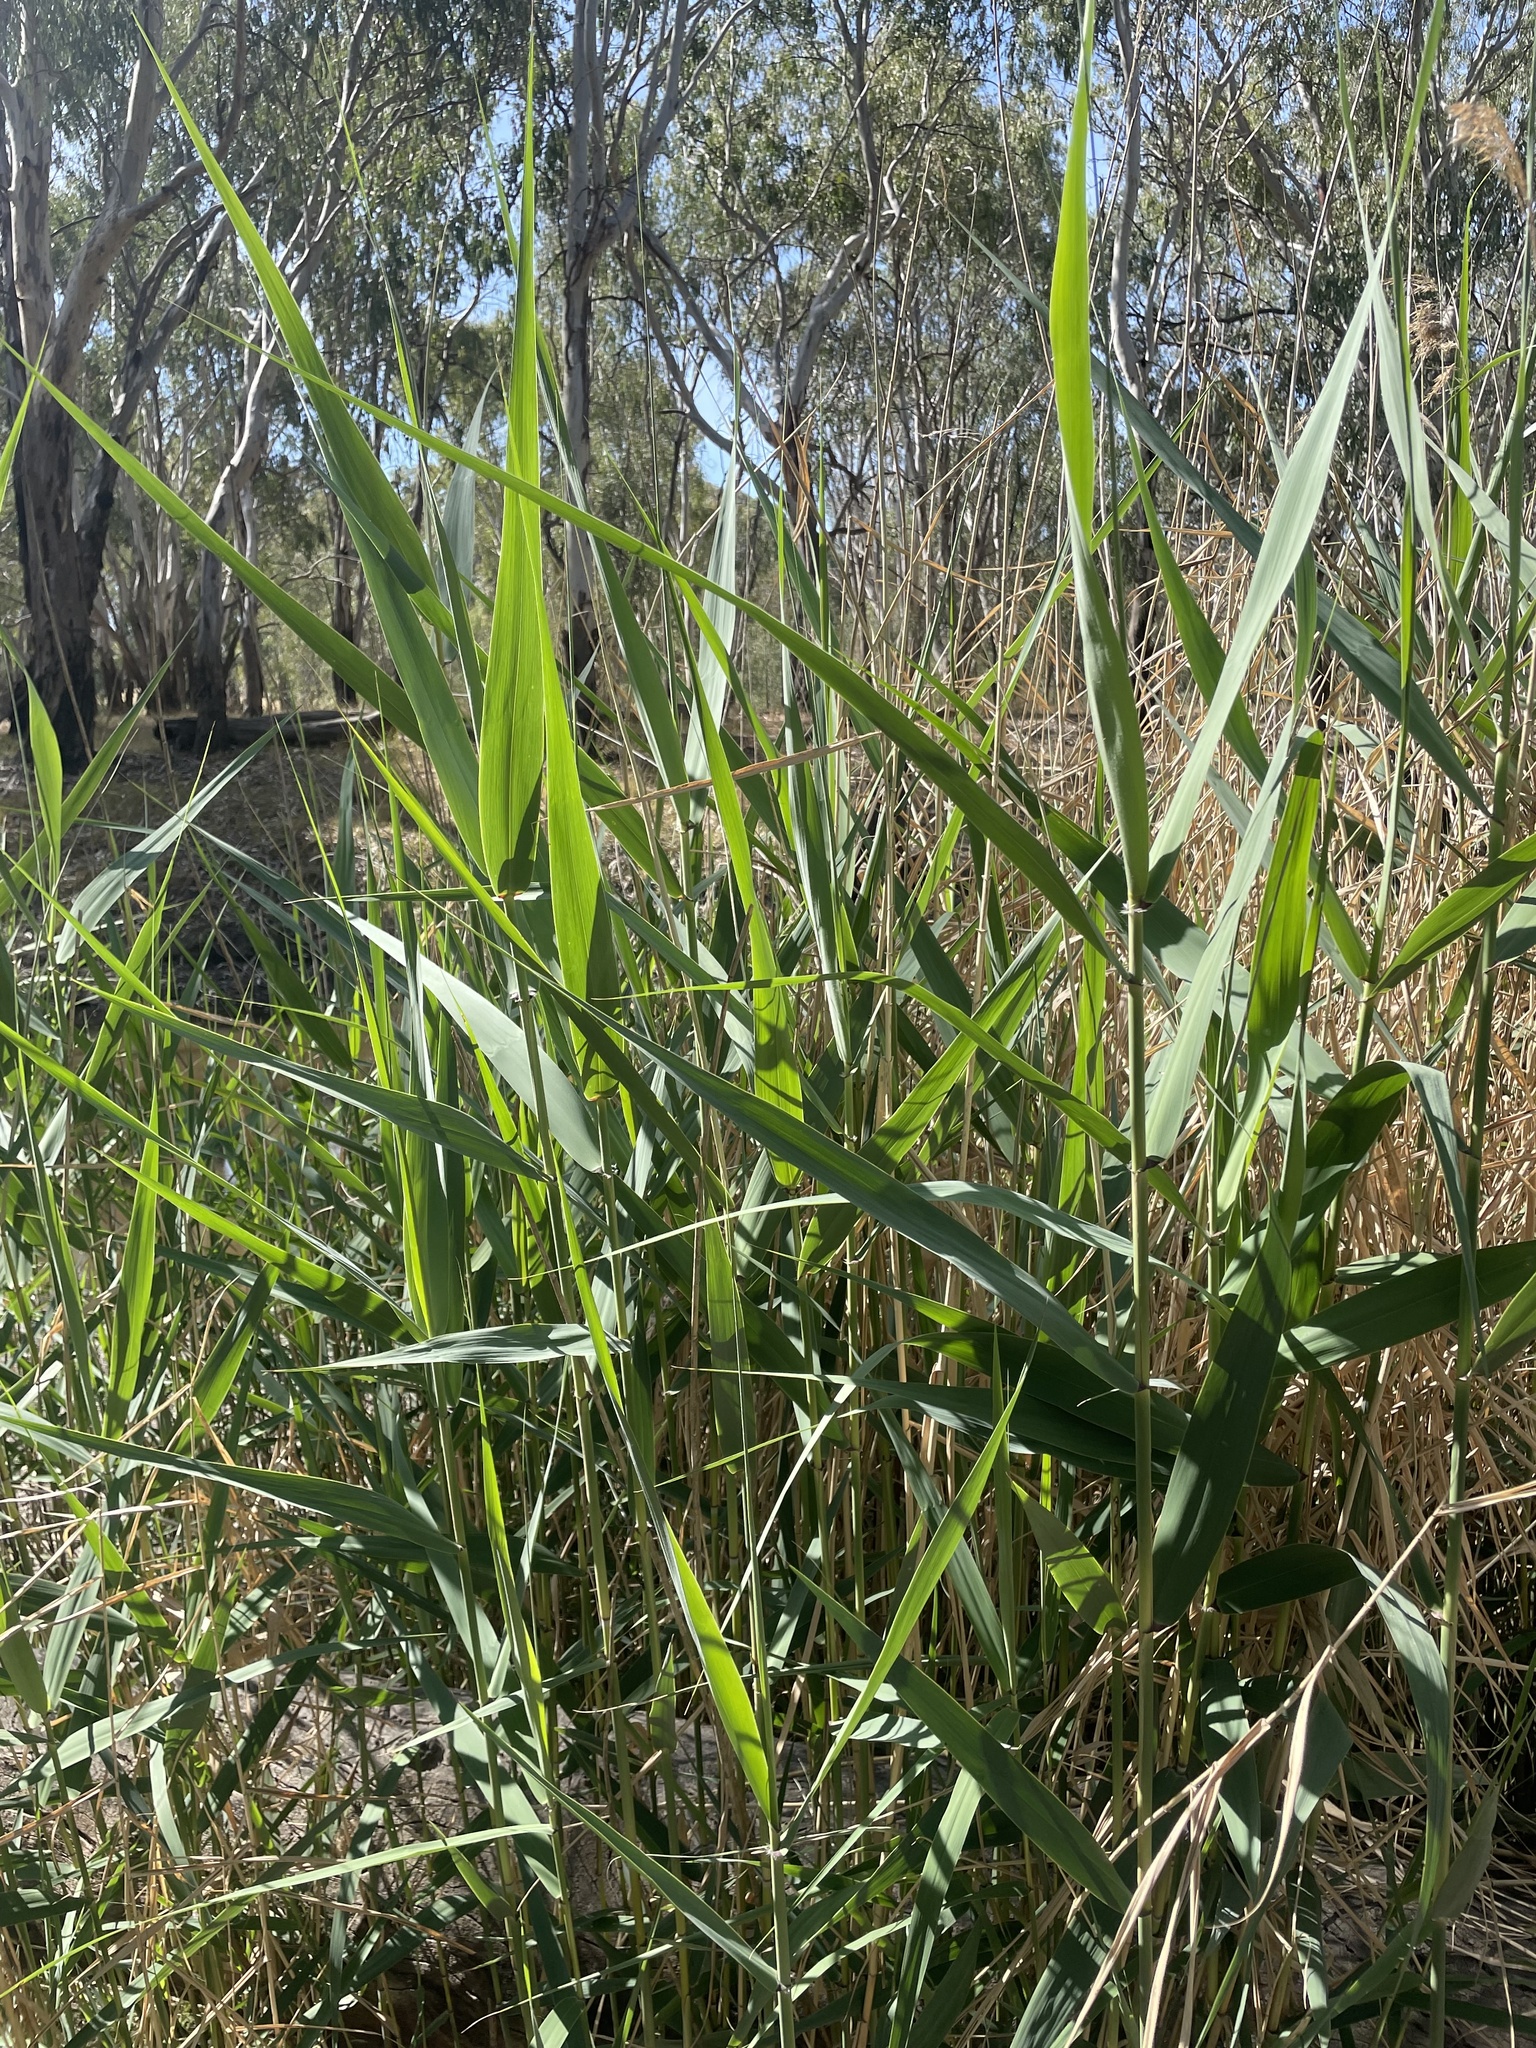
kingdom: Plantae
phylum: Tracheophyta
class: Liliopsida
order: Poales
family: Poaceae
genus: Phragmites
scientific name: Phragmites australis
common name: Common reed
